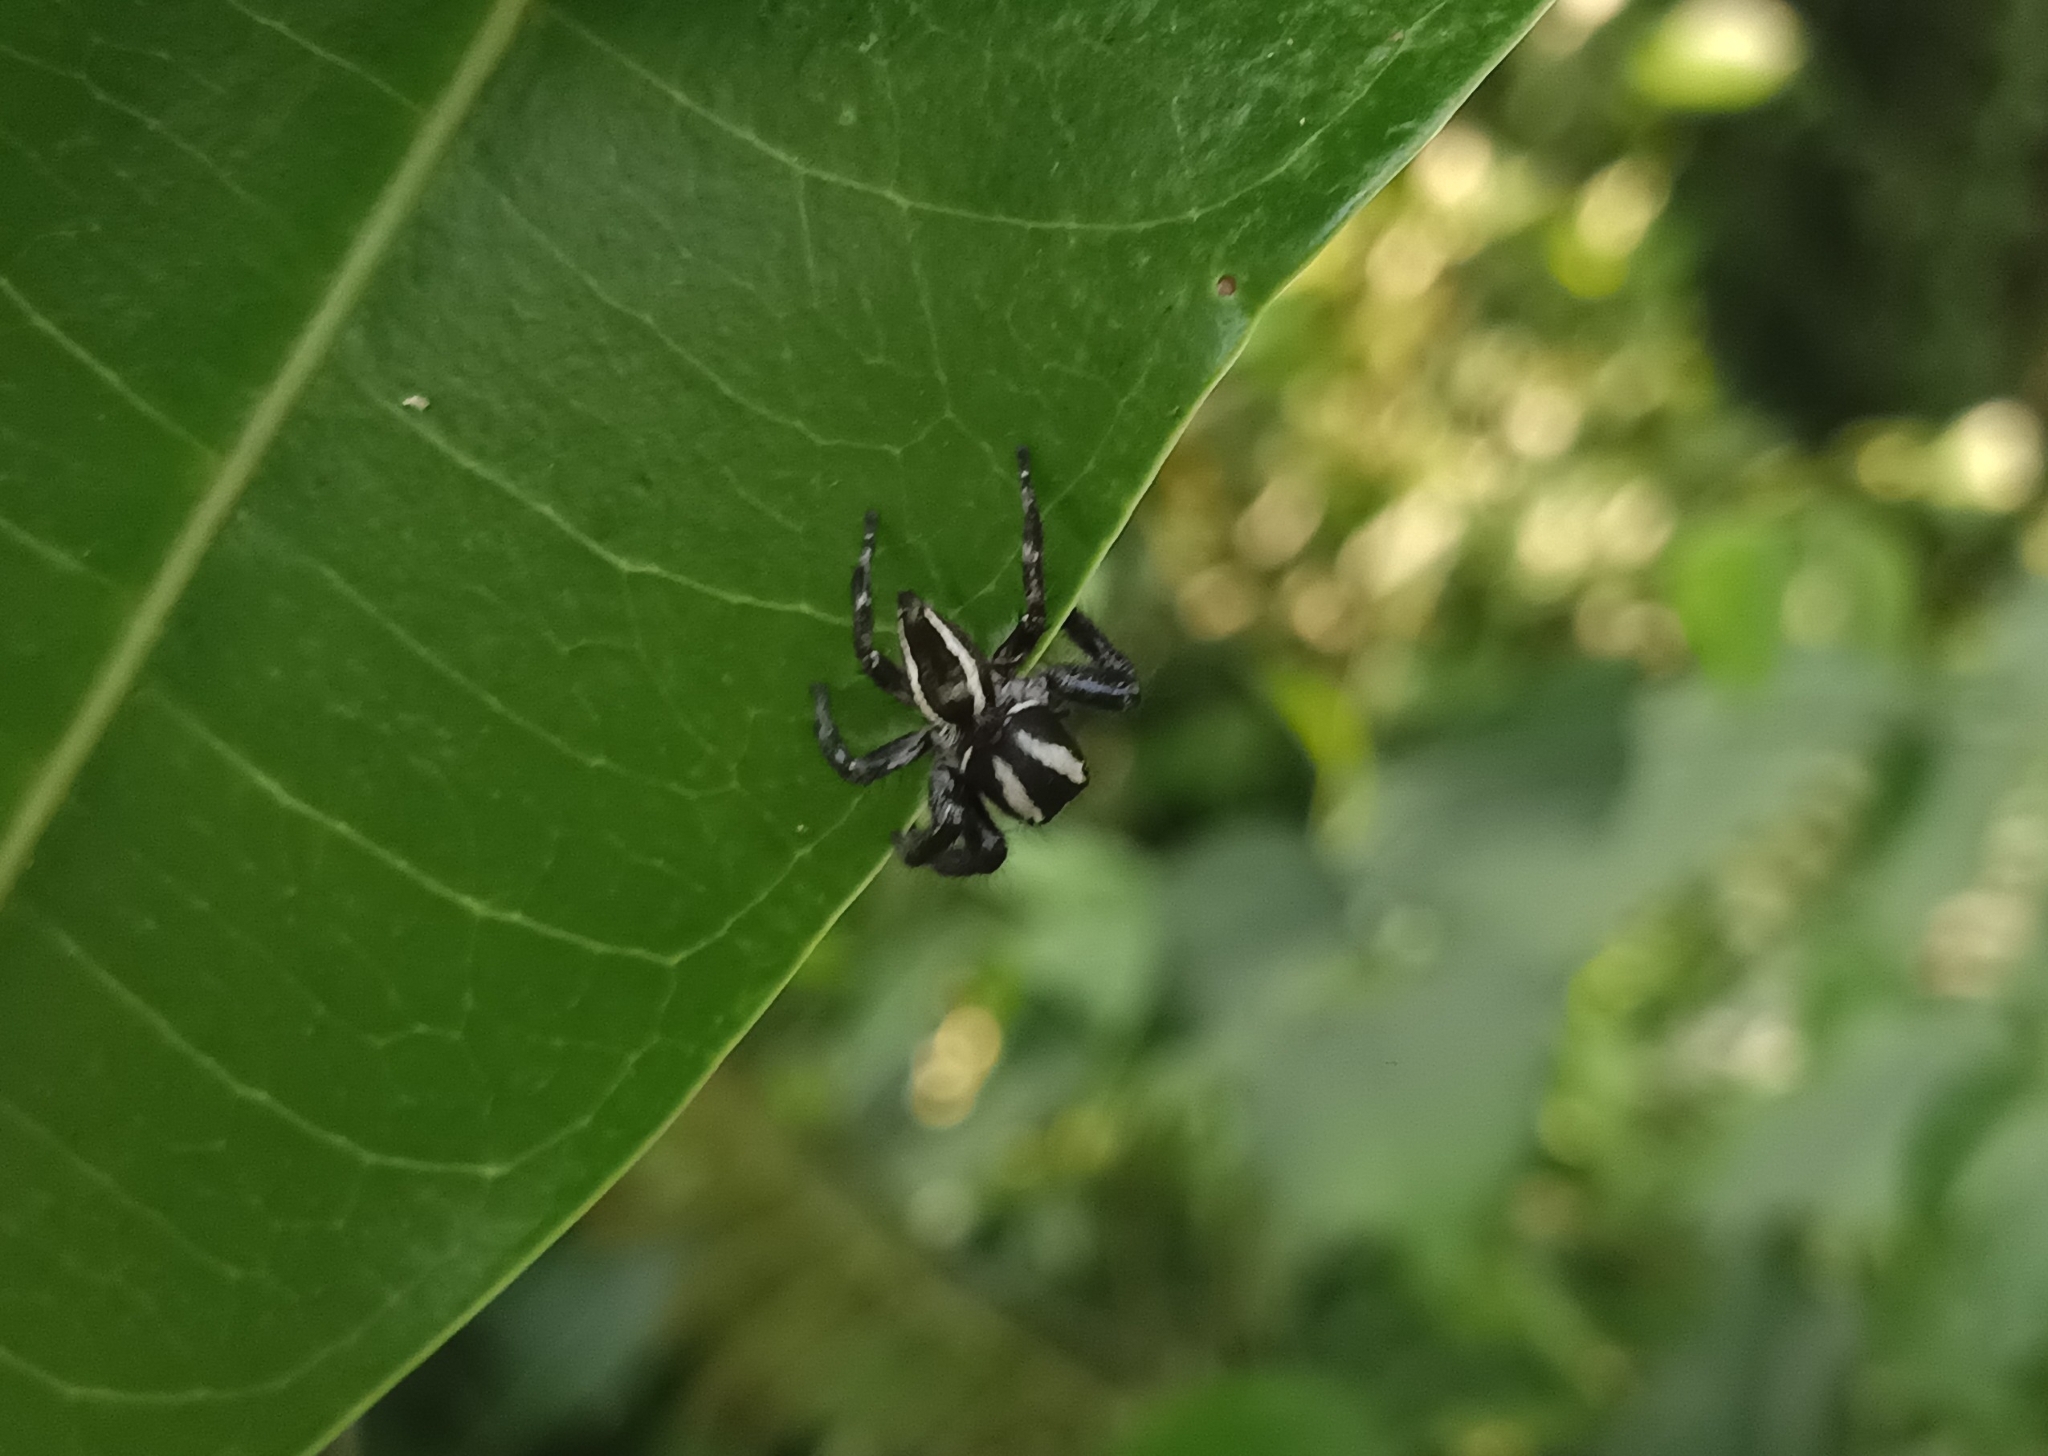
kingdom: Animalia
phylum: Arthropoda
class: Arachnida
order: Araneae
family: Salticidae
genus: Carrhotus
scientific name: Carrhotus viduus
